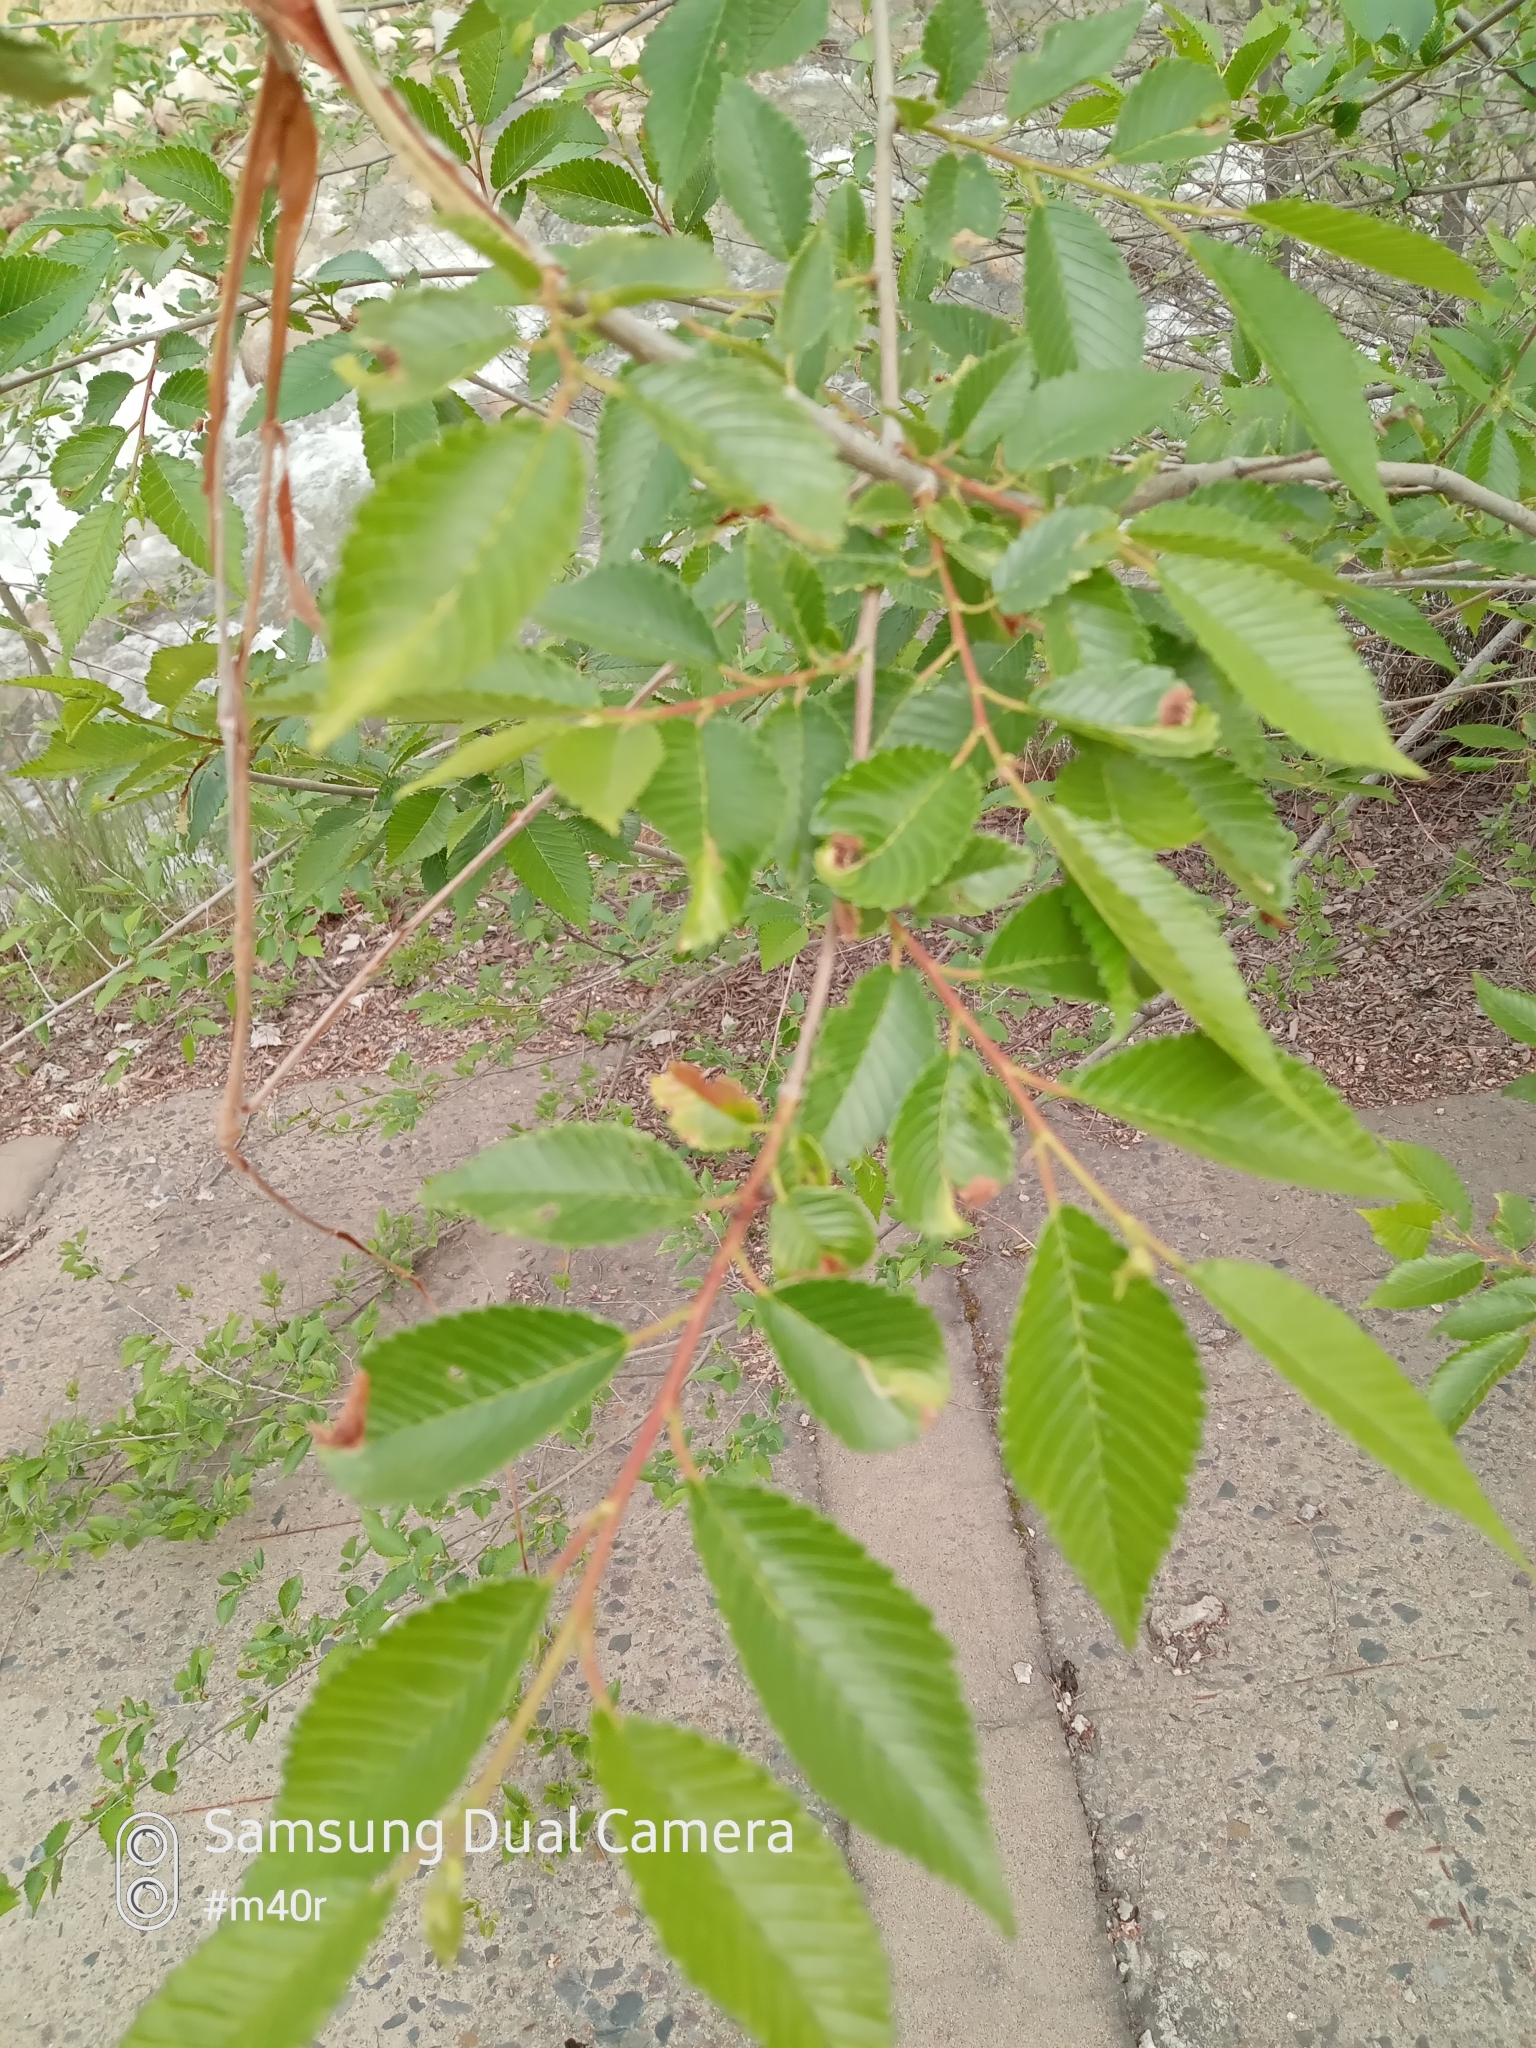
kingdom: Plantae
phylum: Tracheophyta
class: Magnoliopsida
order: Rosales
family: Ulmaceae
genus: Ulmus
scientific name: Ulmus pumila
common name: Siberian elm
